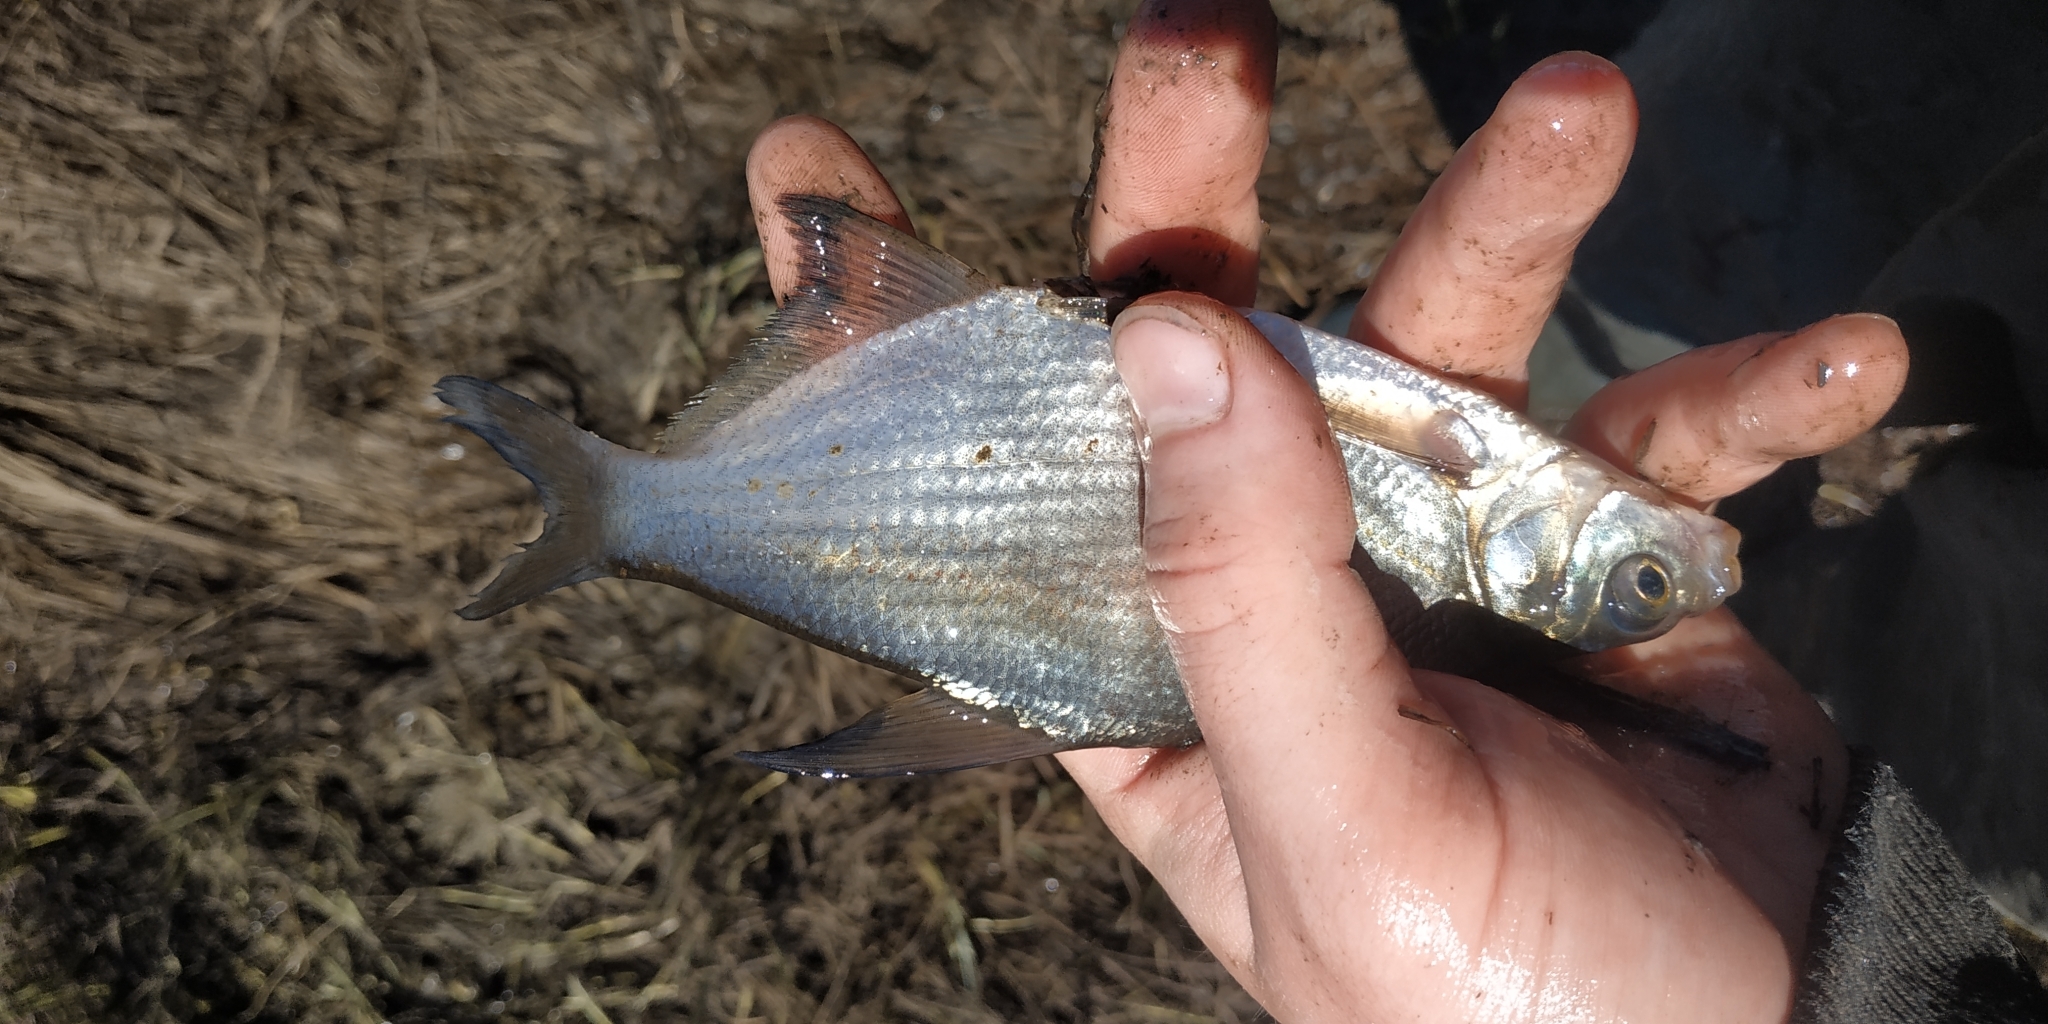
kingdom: Animalia
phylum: Chordata
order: Cypriniformes
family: Cyprinidae
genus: Abramis
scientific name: Abramis brama
